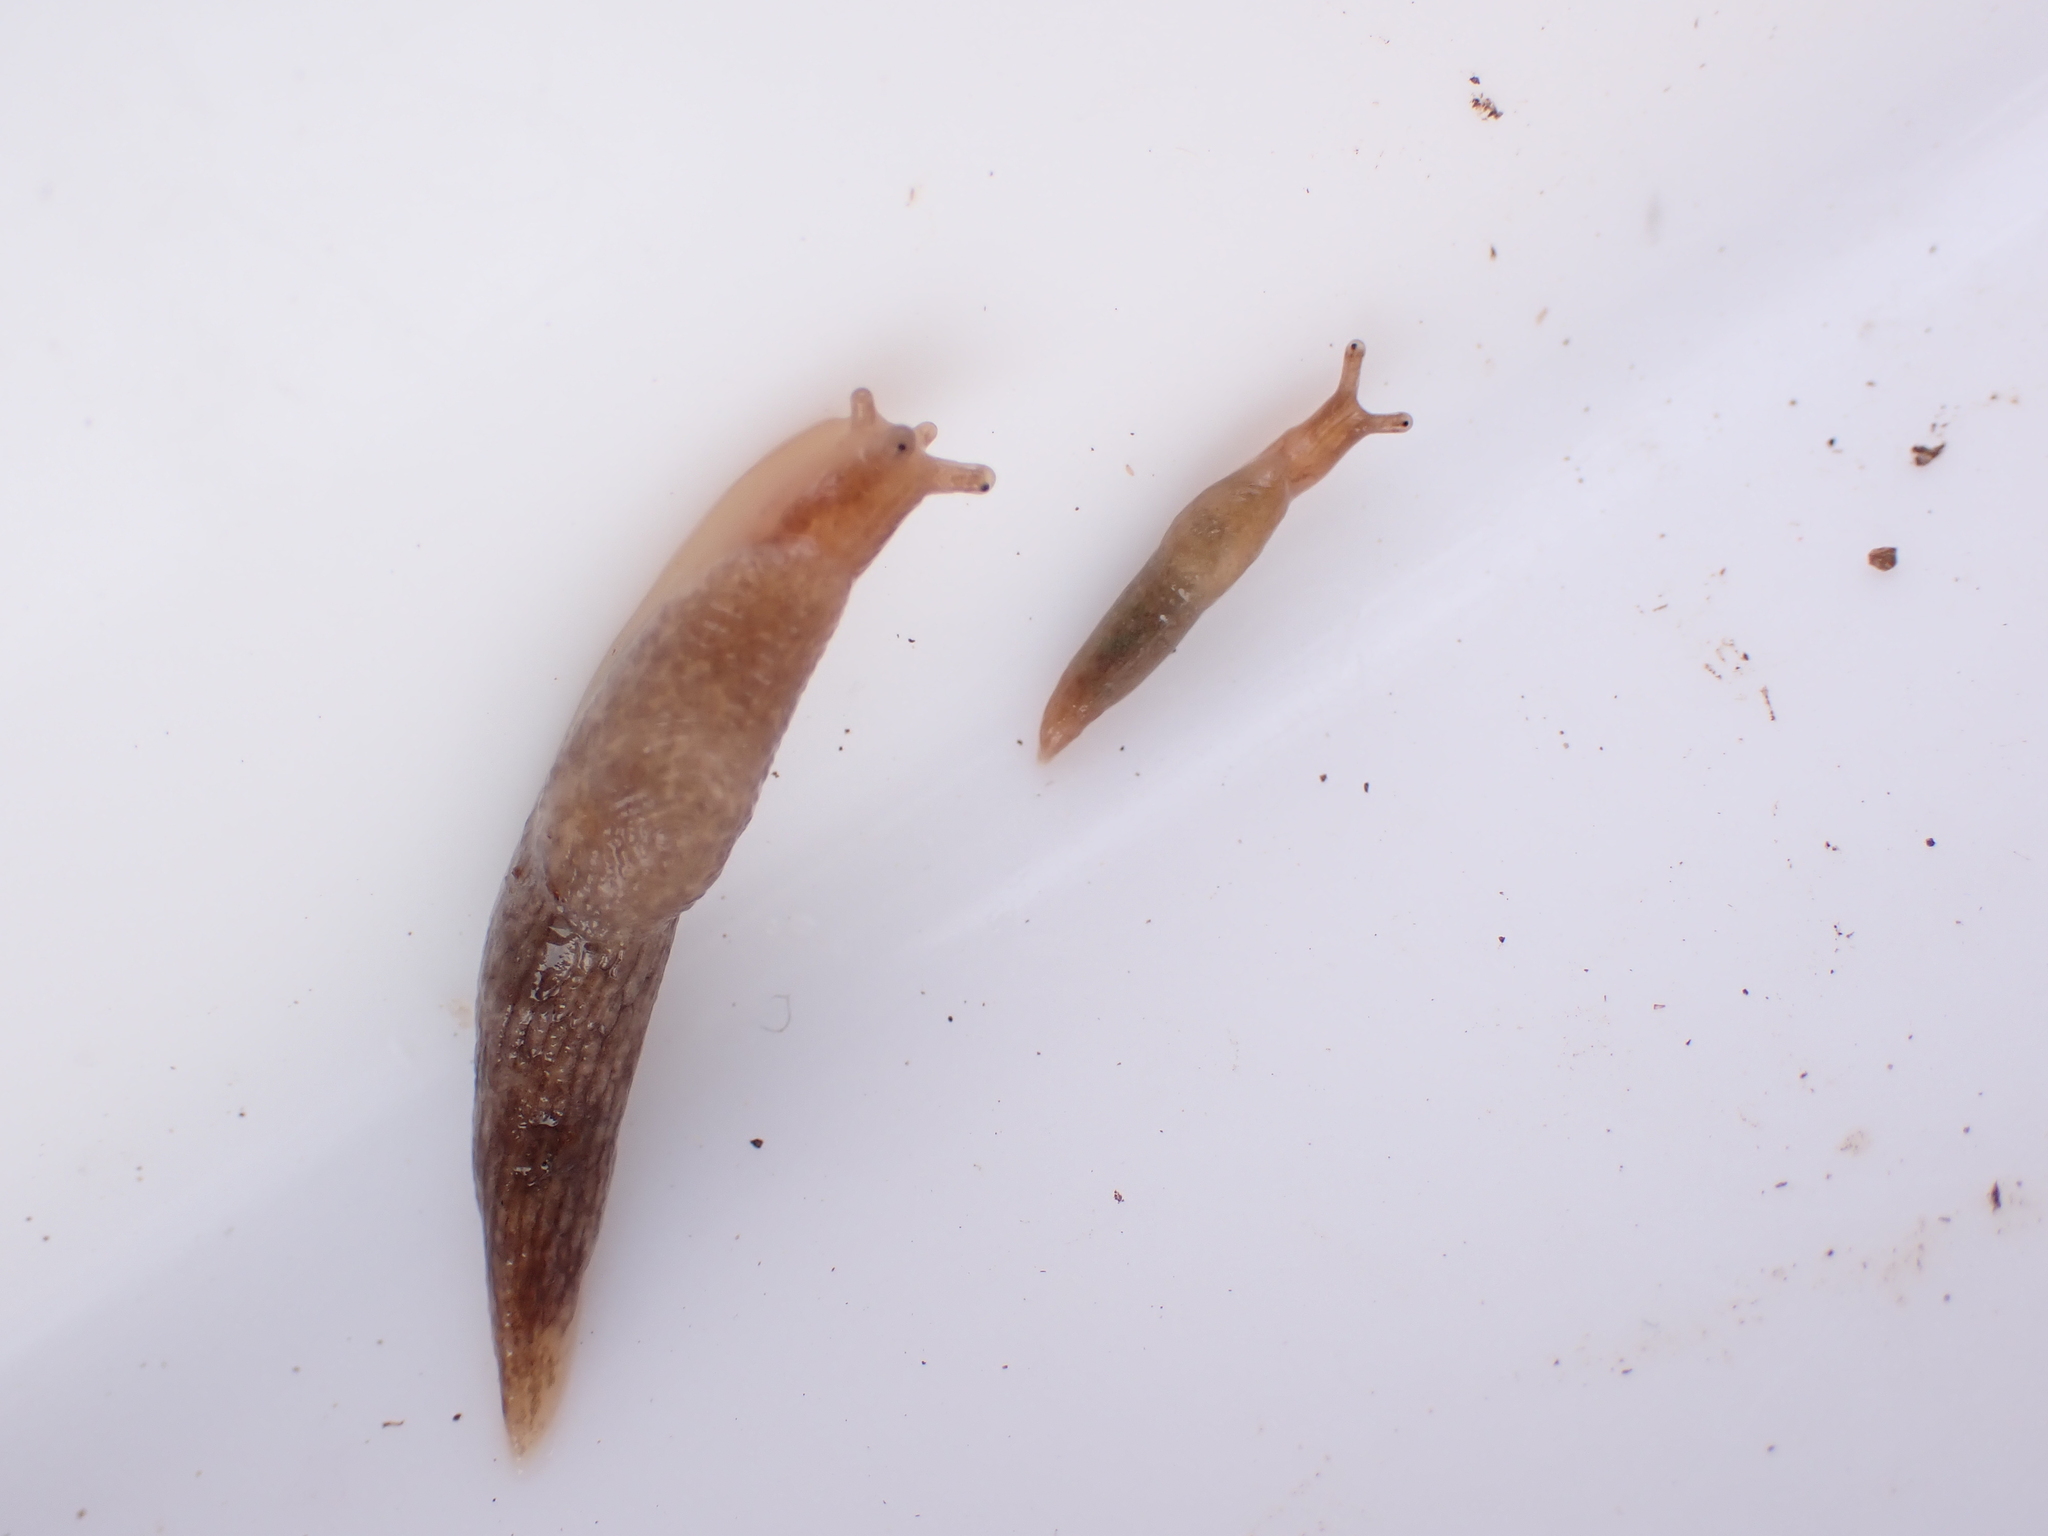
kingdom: Animalia
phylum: Mollusca
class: Gastropoda
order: Stylommatophora
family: Agriolimacidae
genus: Deroceras
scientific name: Deroceras reticulatum
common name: Gray field slug
